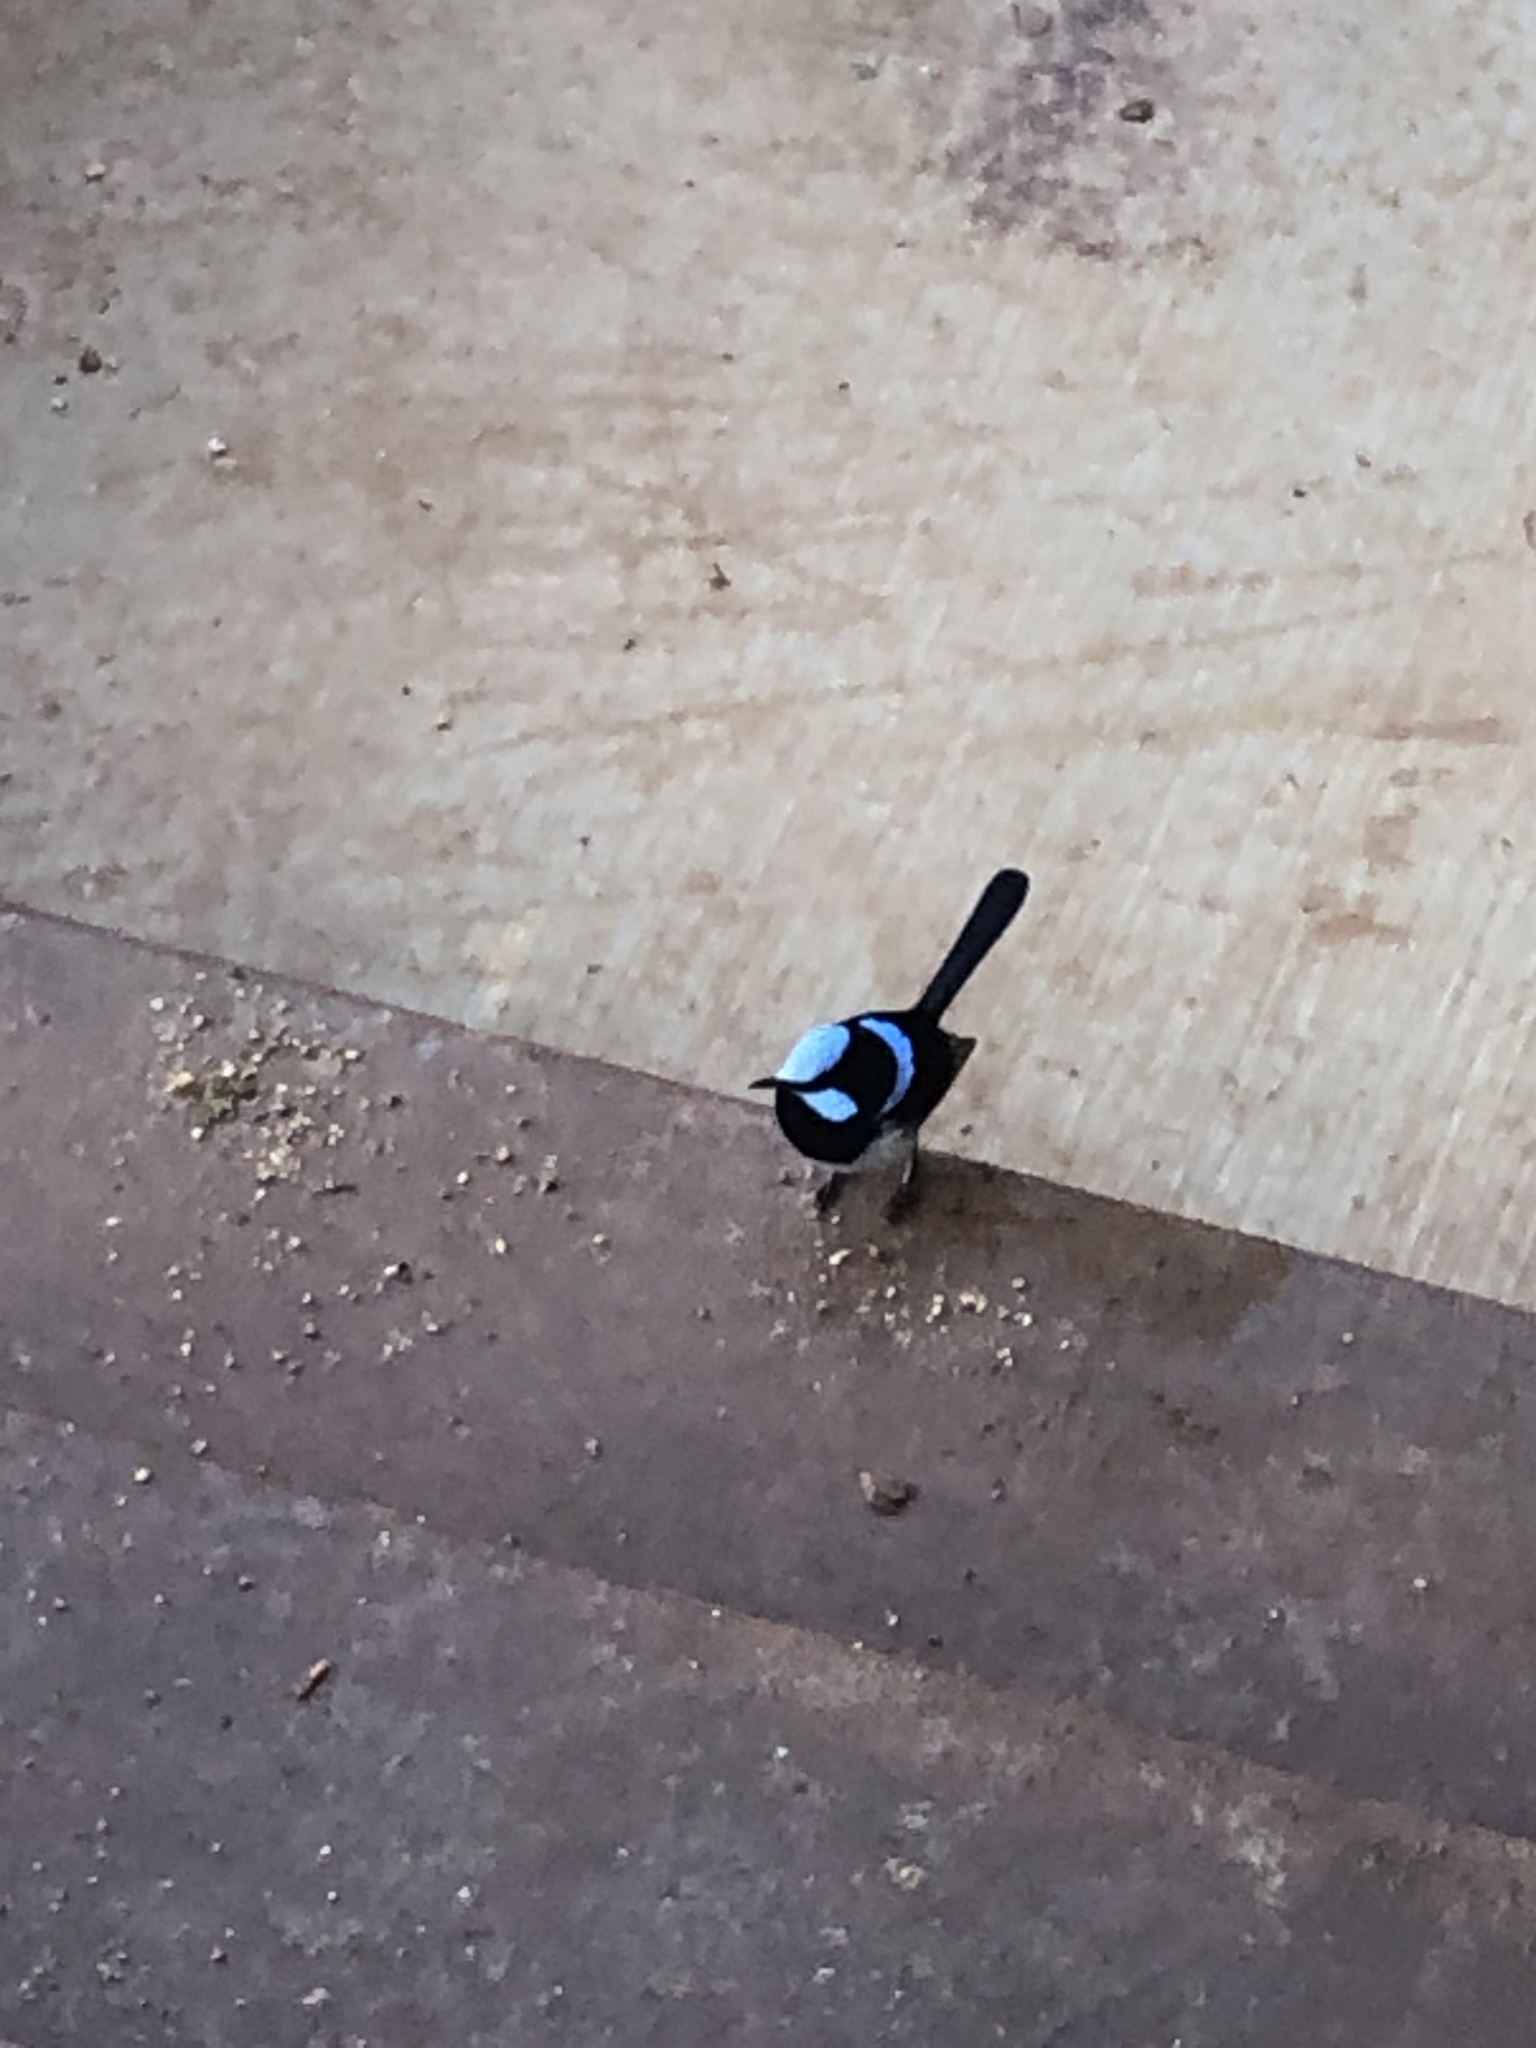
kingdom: Animalia
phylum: Chordata
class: Aves
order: Passeriformes
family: Maluridae
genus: Malurus
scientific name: Malurus cyaneus
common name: Superb fairywren
